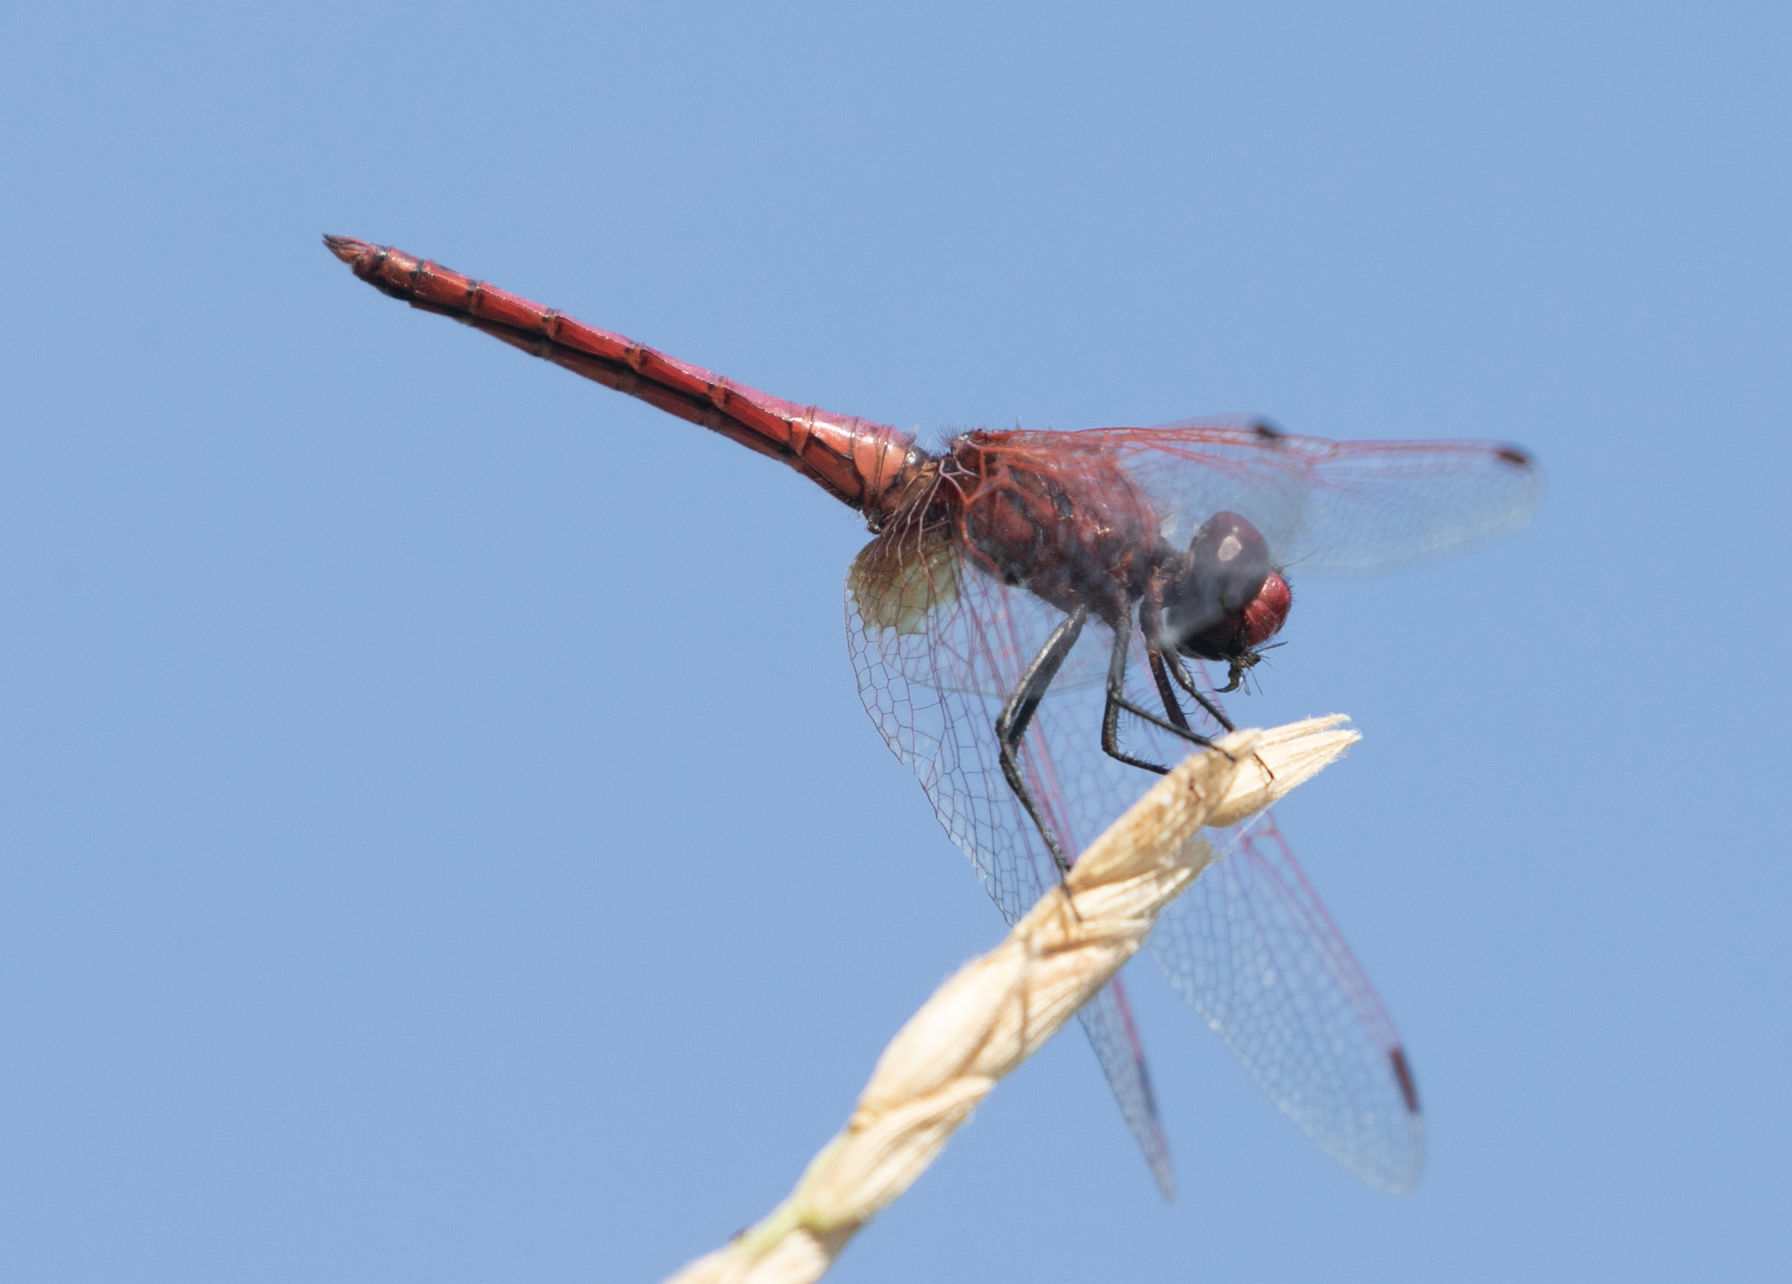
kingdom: Animalia
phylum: Arthropoda
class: Insecta
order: Odonata
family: Libellulidae
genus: Trithemis
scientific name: Trithemis annulata
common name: Violet dropwing
